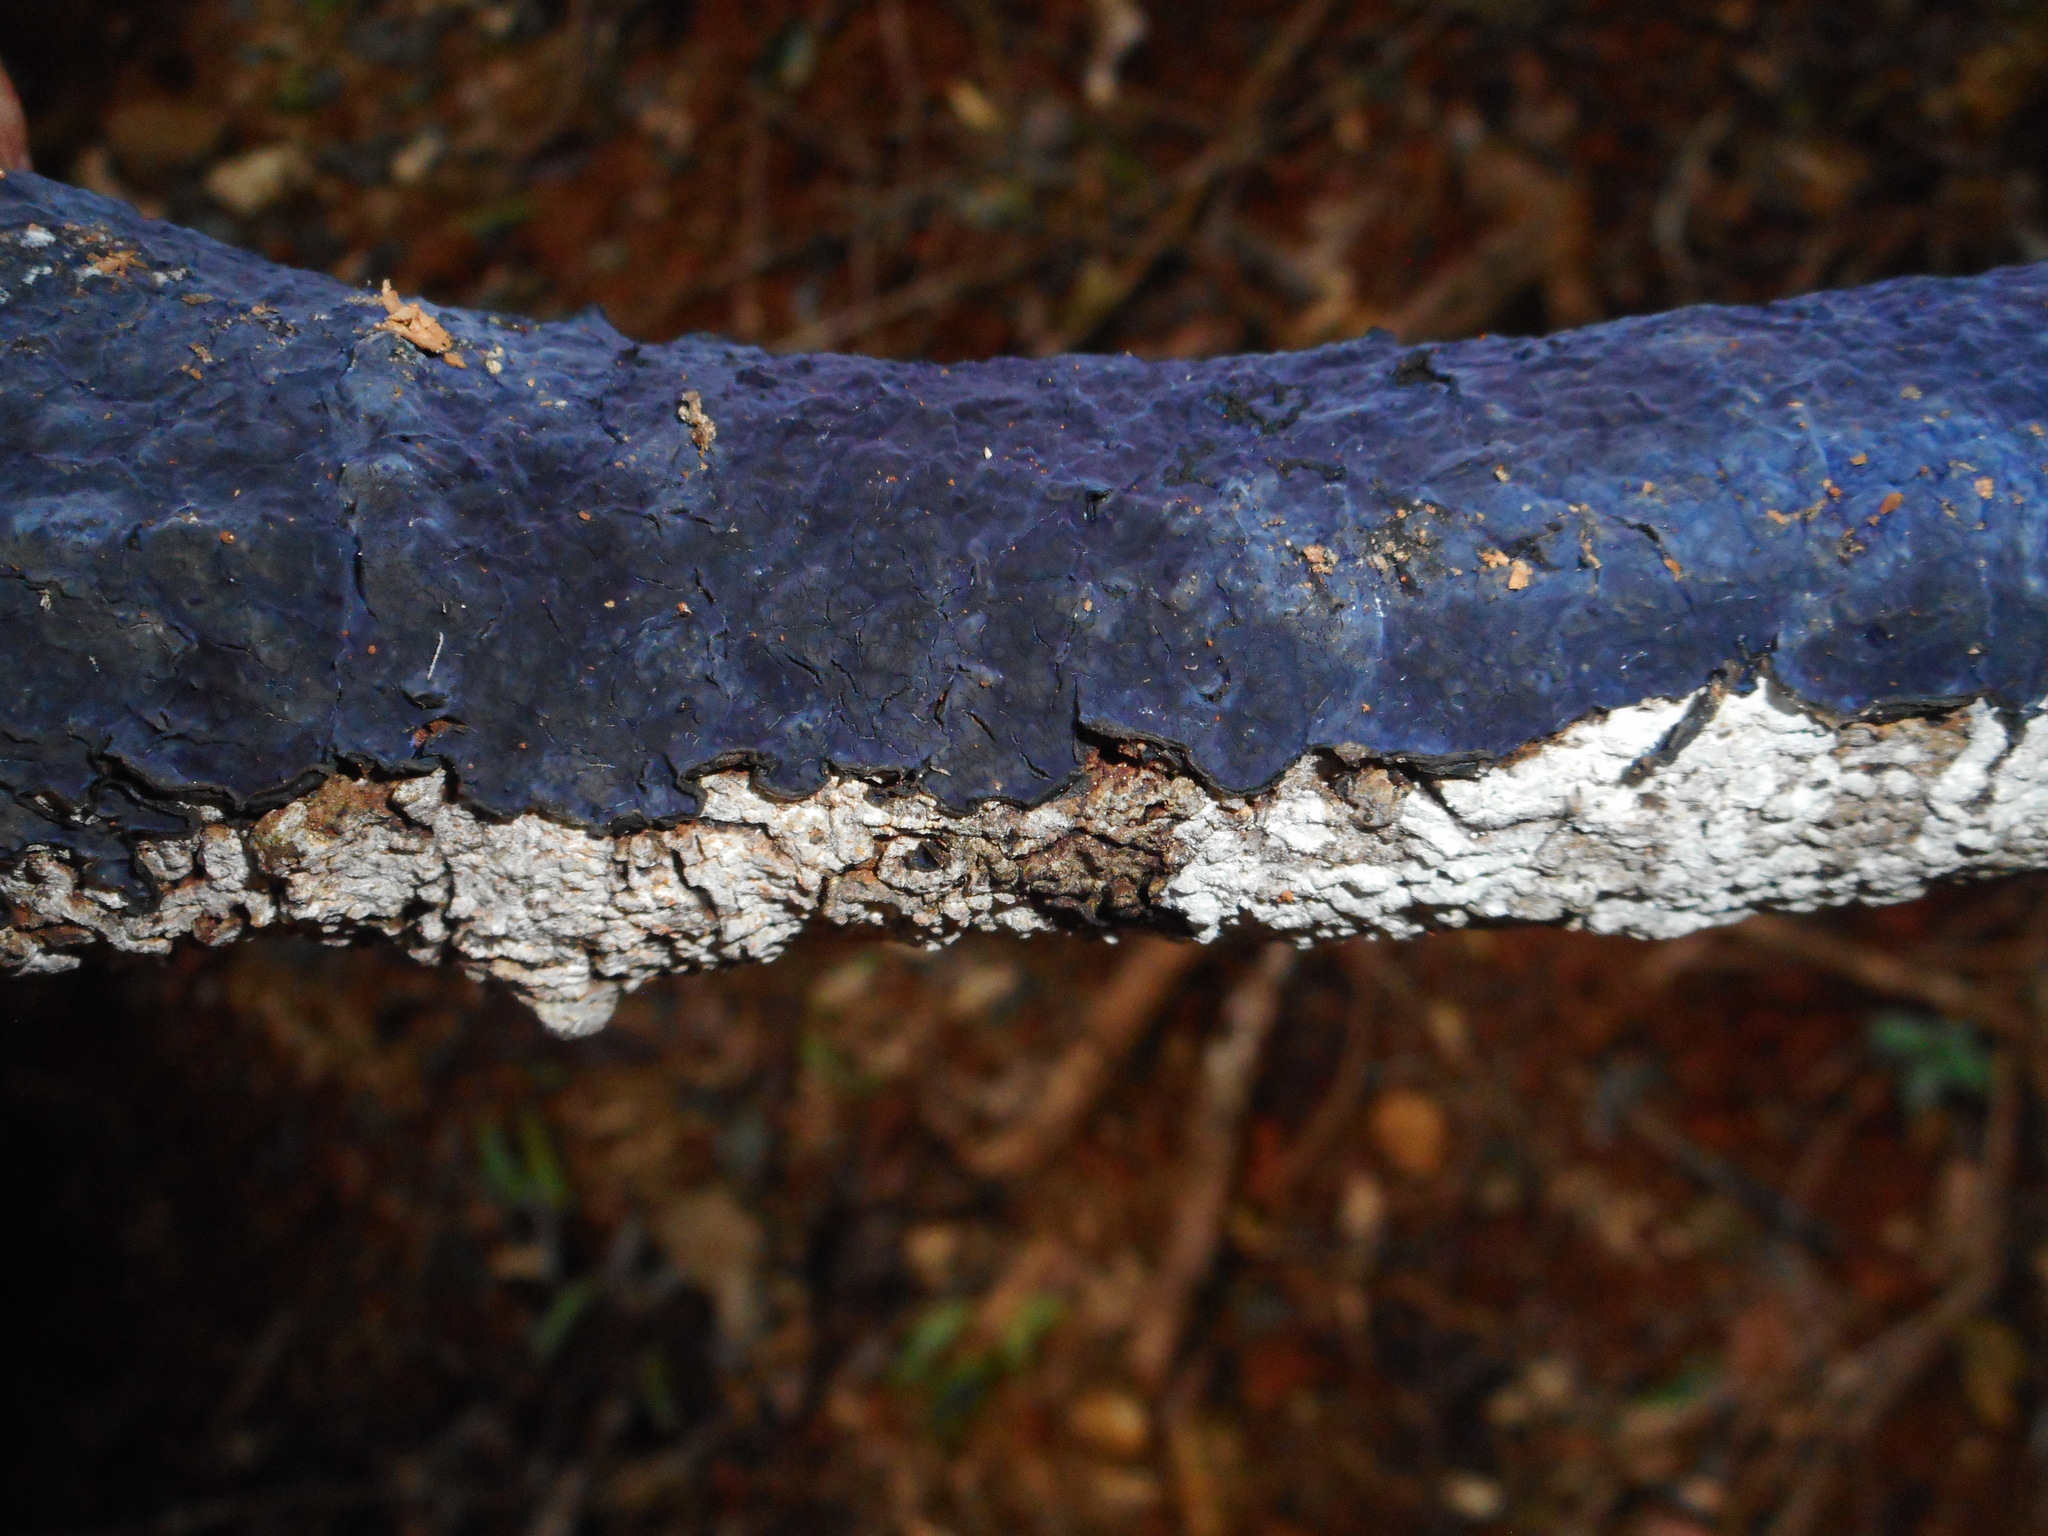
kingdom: Fungi
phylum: Basidiomycota
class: Agaricomycetes
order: Polyporales
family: Phanerochaetaceae
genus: Terana
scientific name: Terana coerulea
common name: Cobalt crust
